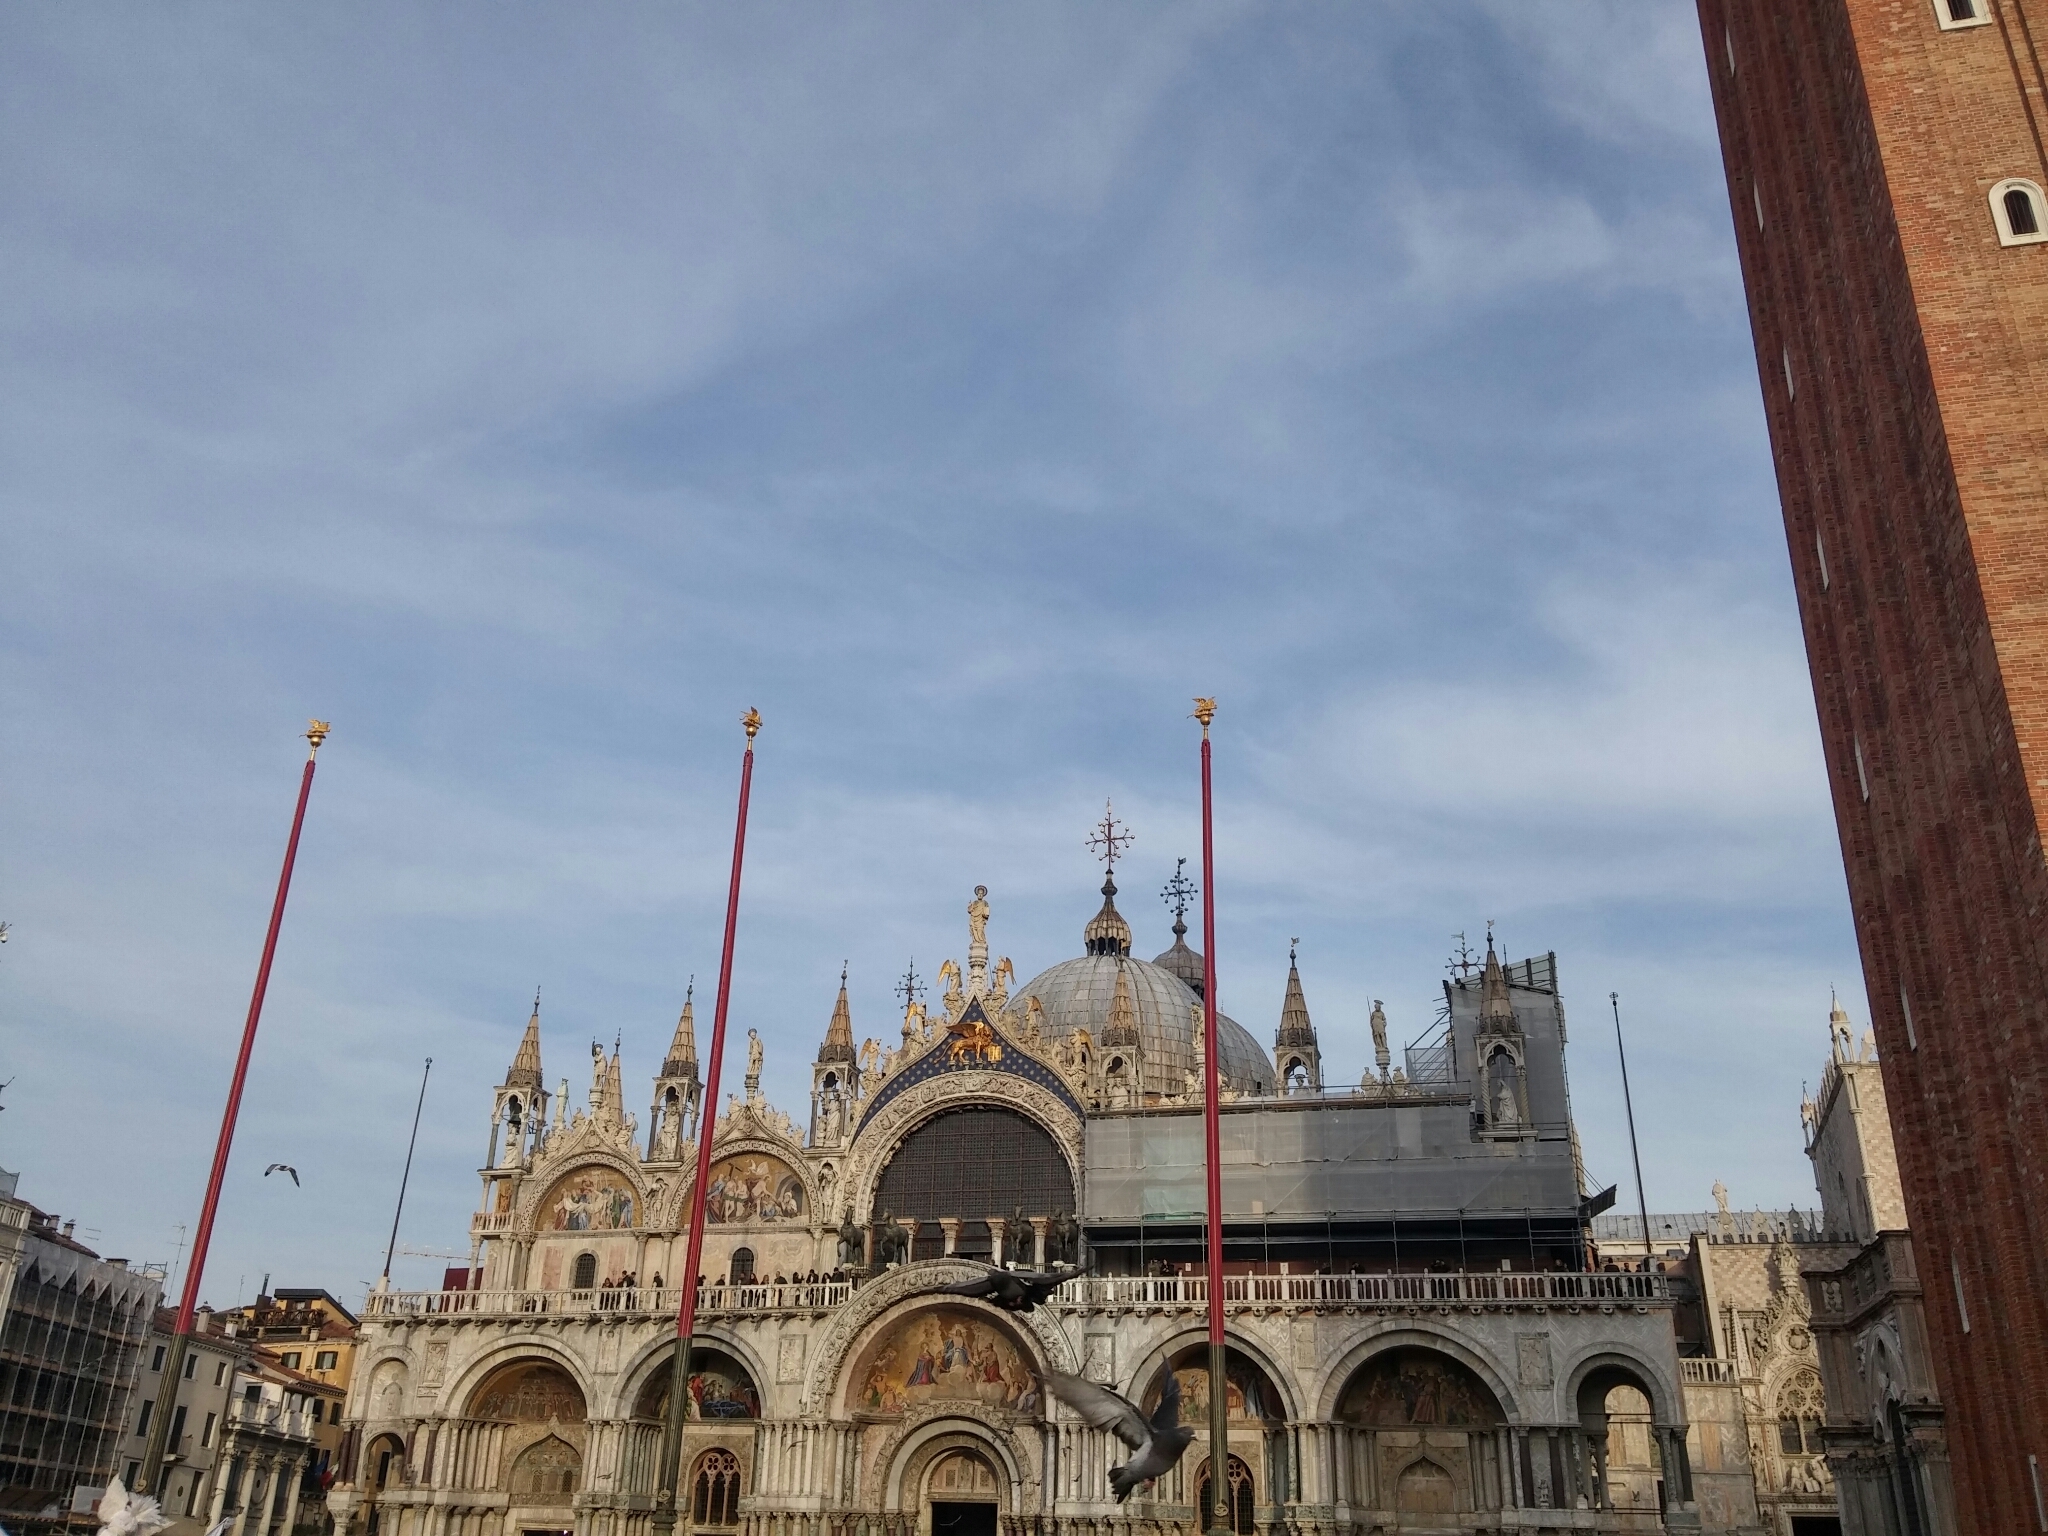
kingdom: Animalia
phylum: Chordata
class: Aves
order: Columbiformes
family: Columbidae
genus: Columba
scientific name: Columba livia
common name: Rock pigeon
